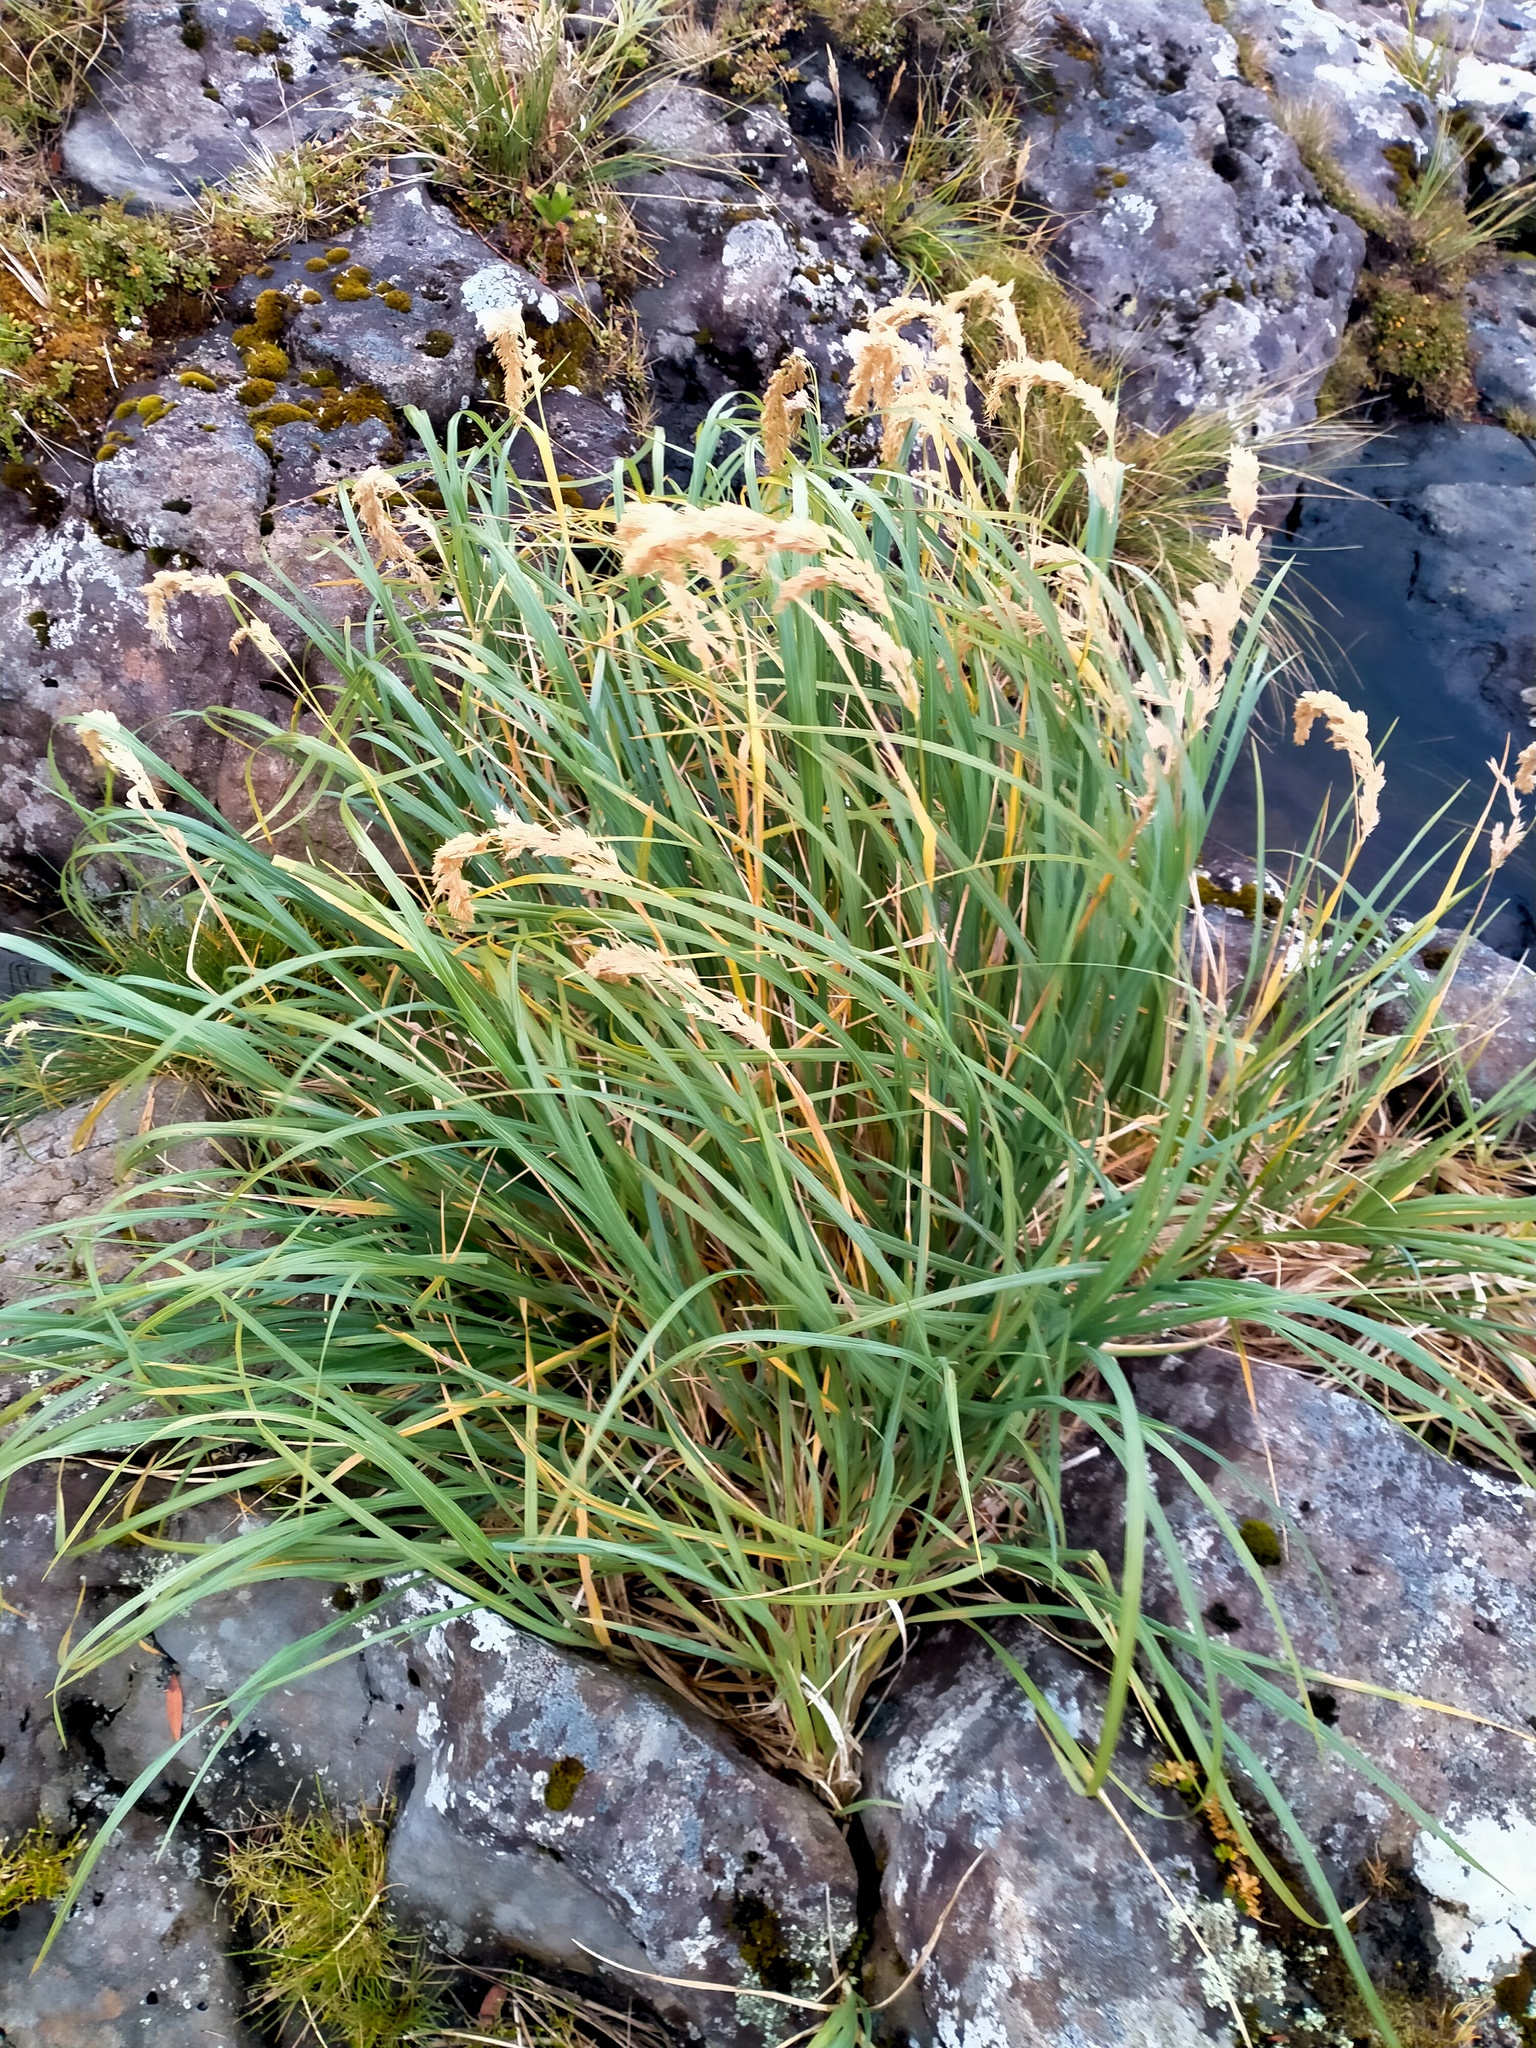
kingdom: Plantae
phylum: Tracheophyta
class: Liliopsida
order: Poales
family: Poaceae
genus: Poa
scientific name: Poa foliosa
